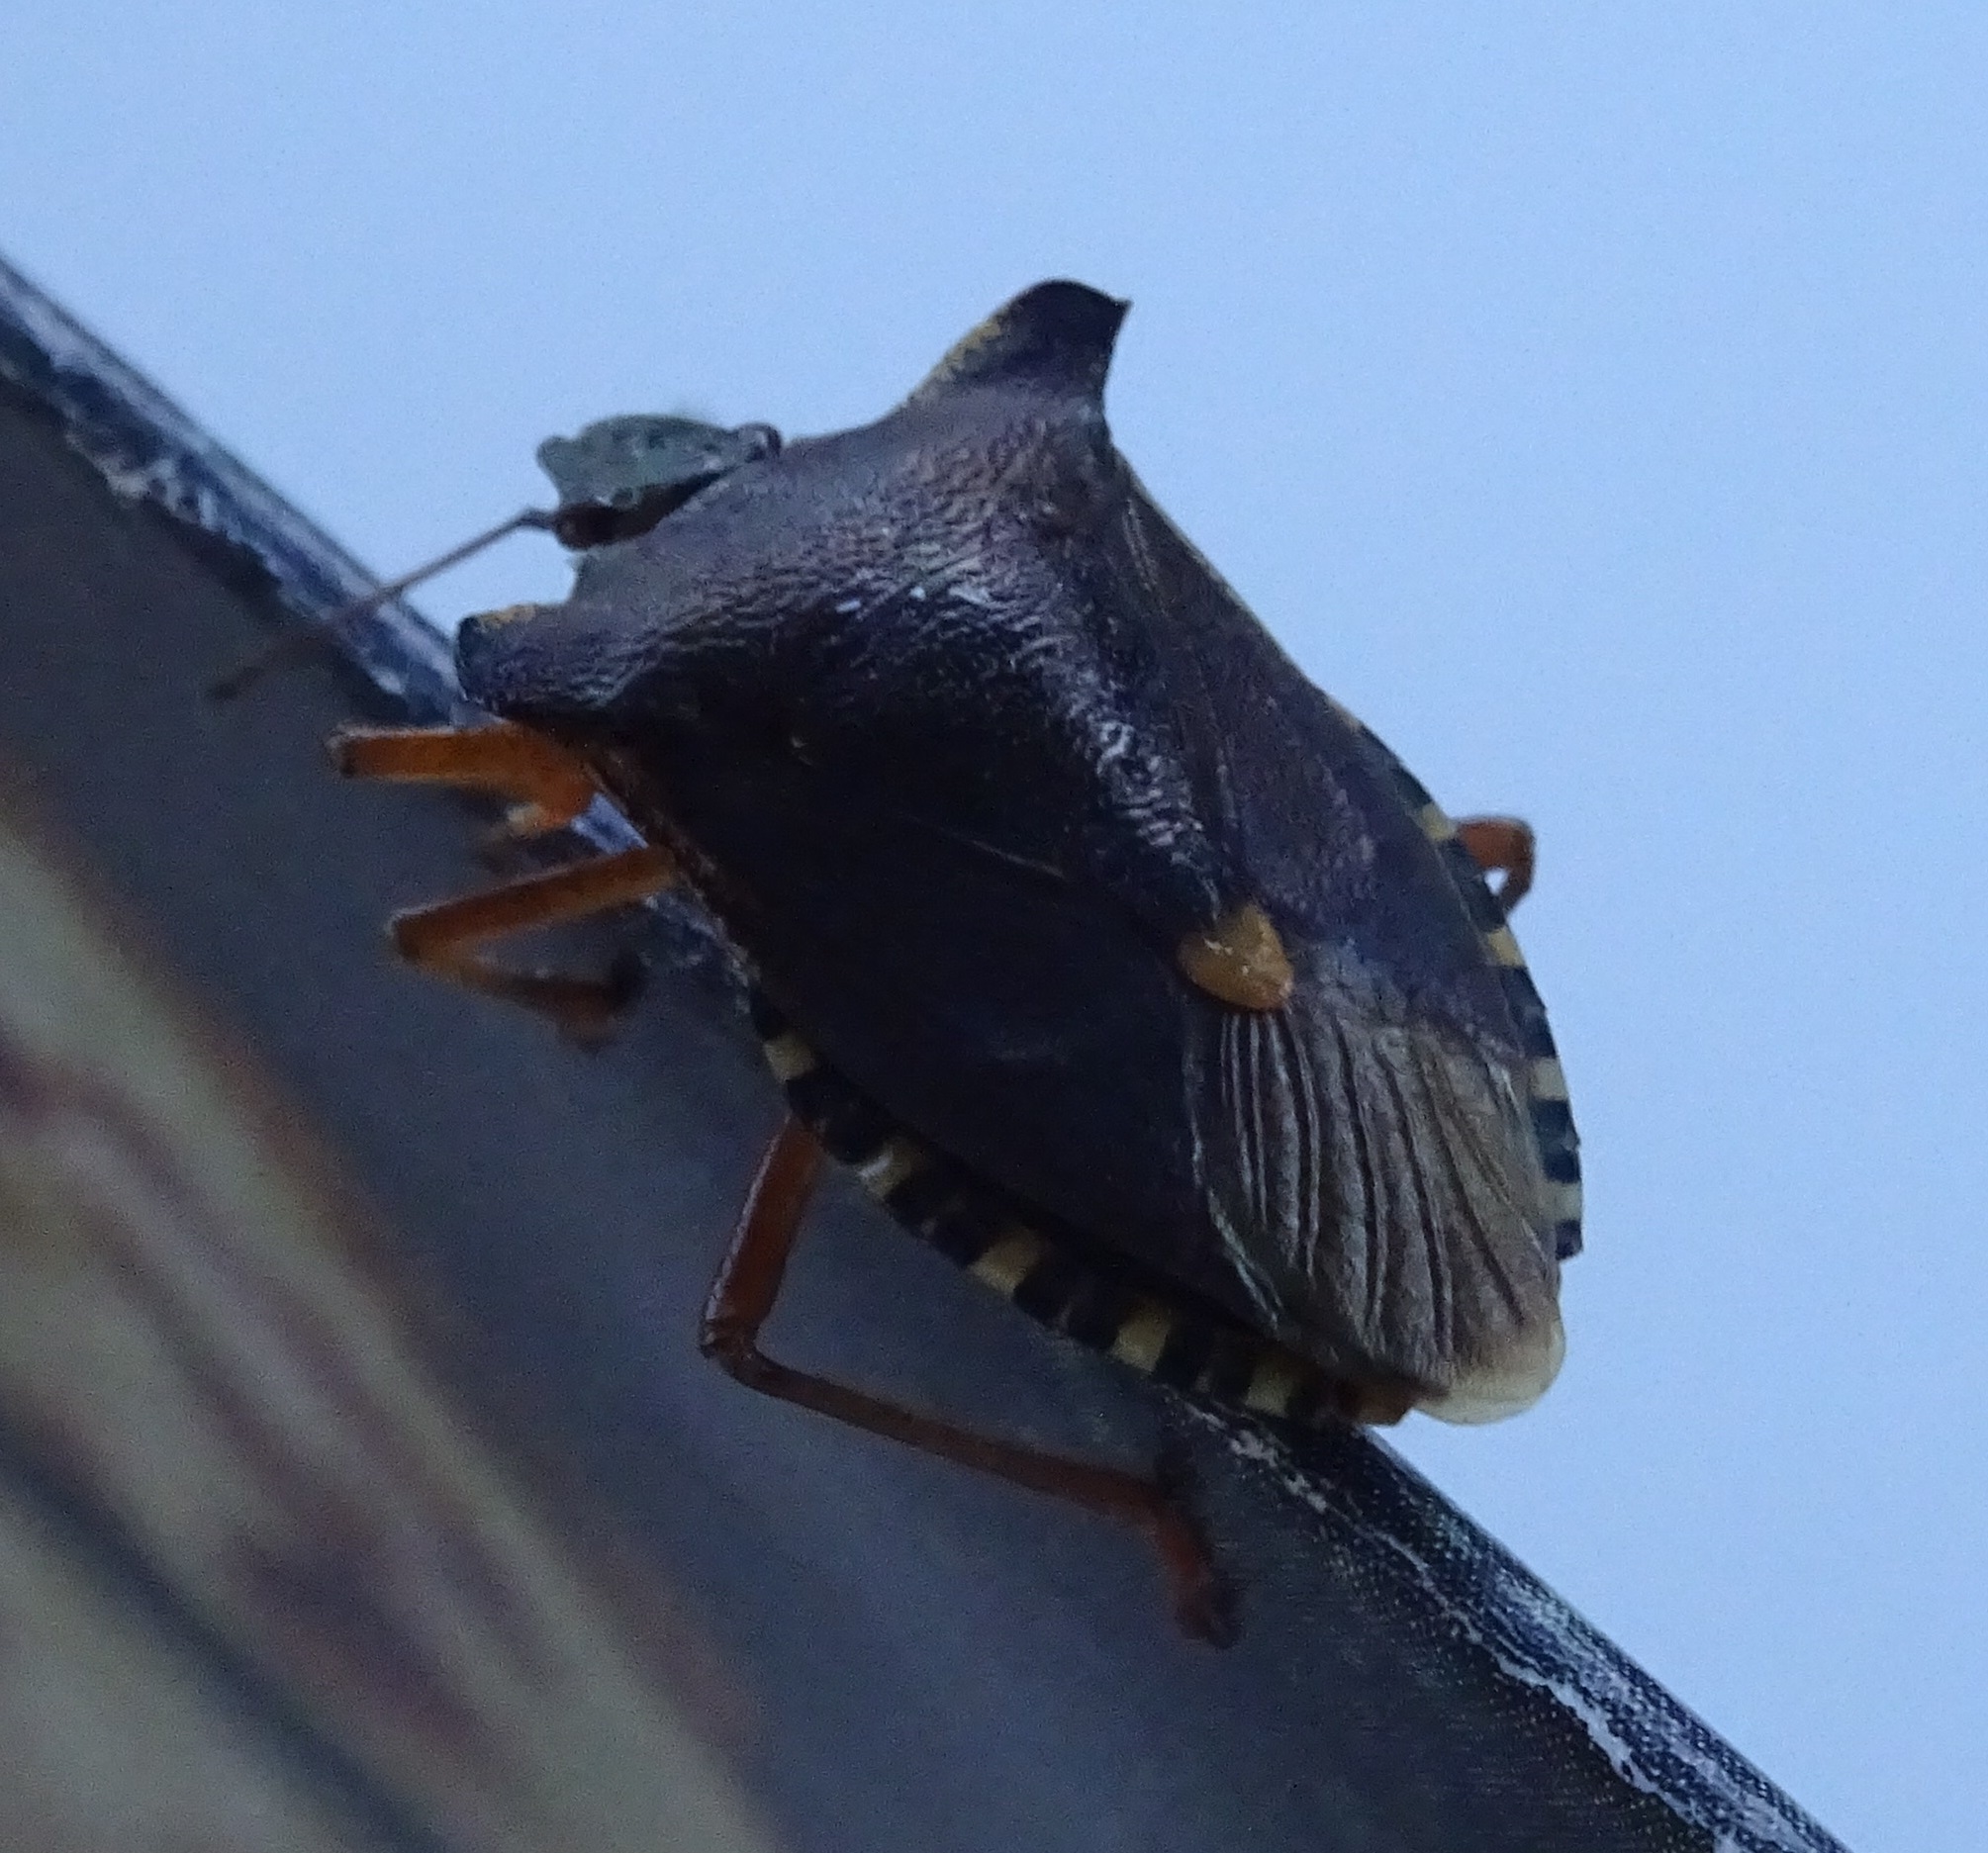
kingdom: Animalia
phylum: Arthropoda
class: Insecta
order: Hemiptera
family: Pentatomidae
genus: Pentatoma
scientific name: Pentatoma rufipes
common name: Forest bug
